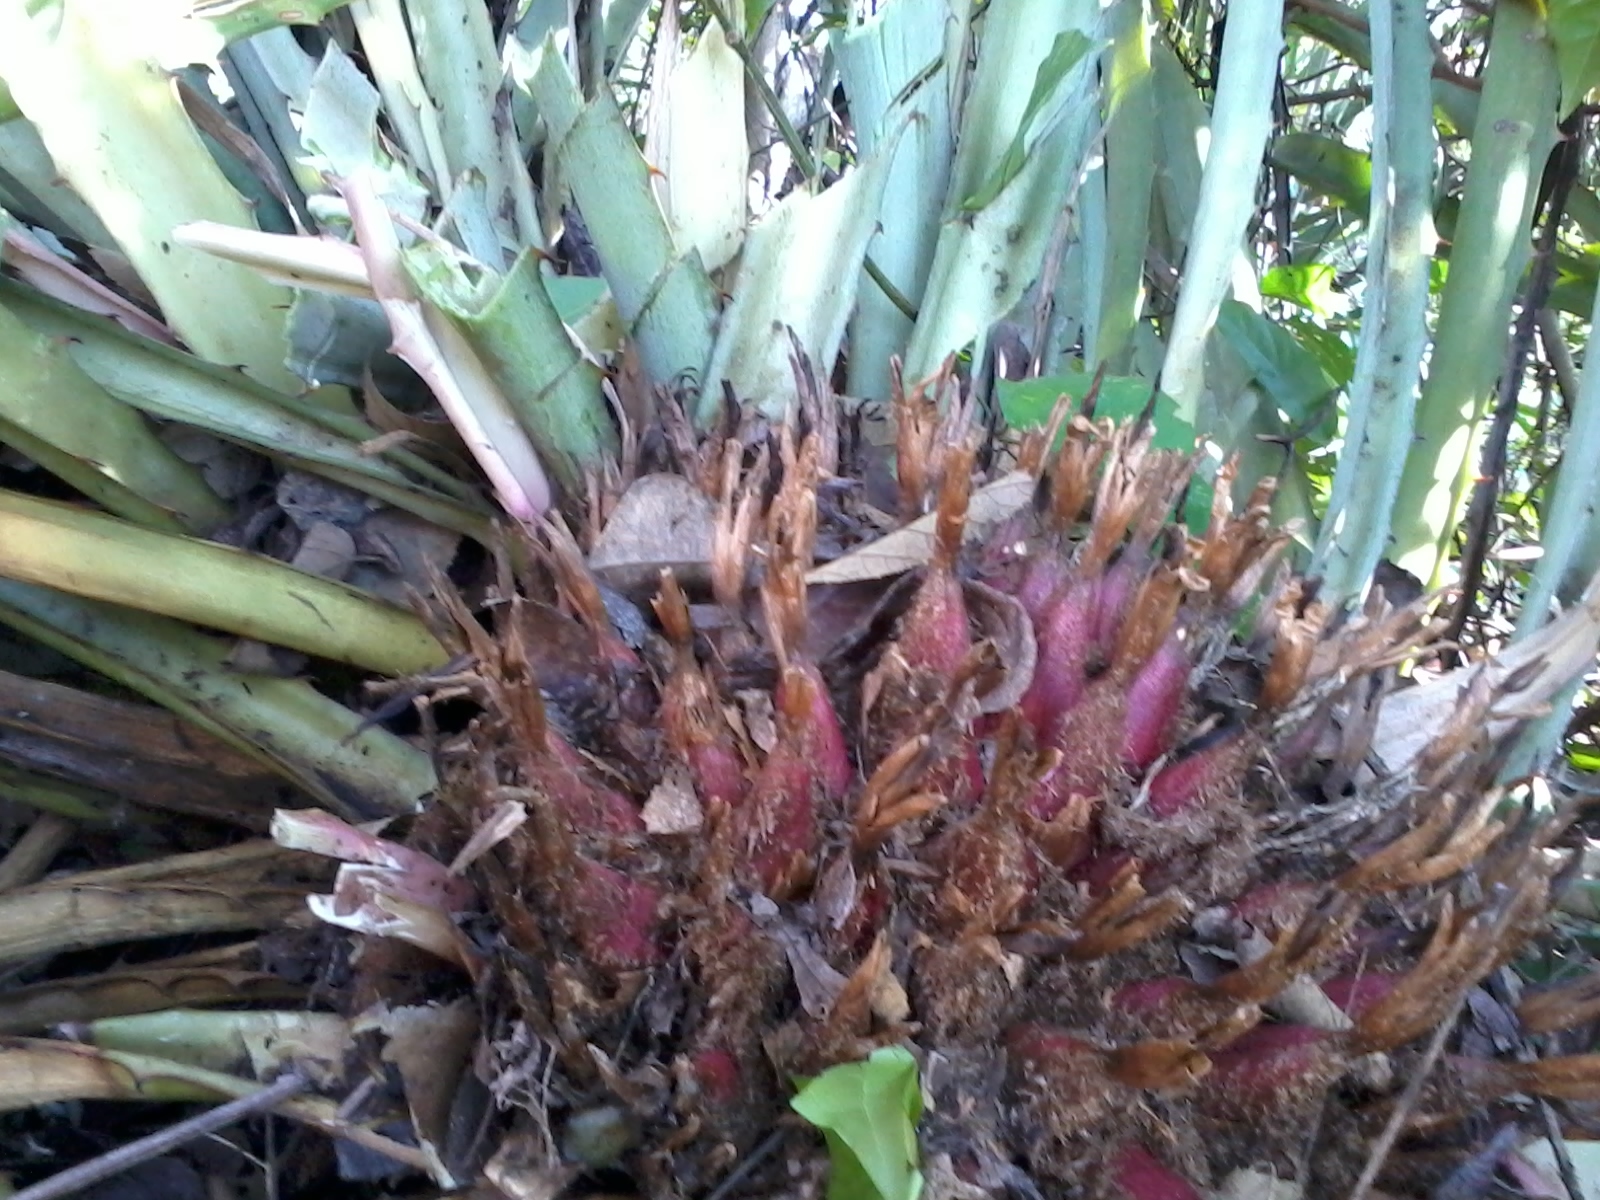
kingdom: Plantae
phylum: Tracheophyta
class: Liliopsida
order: Poales
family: Bromeliaceae
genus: Bromelia
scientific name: Bromelia karatas
